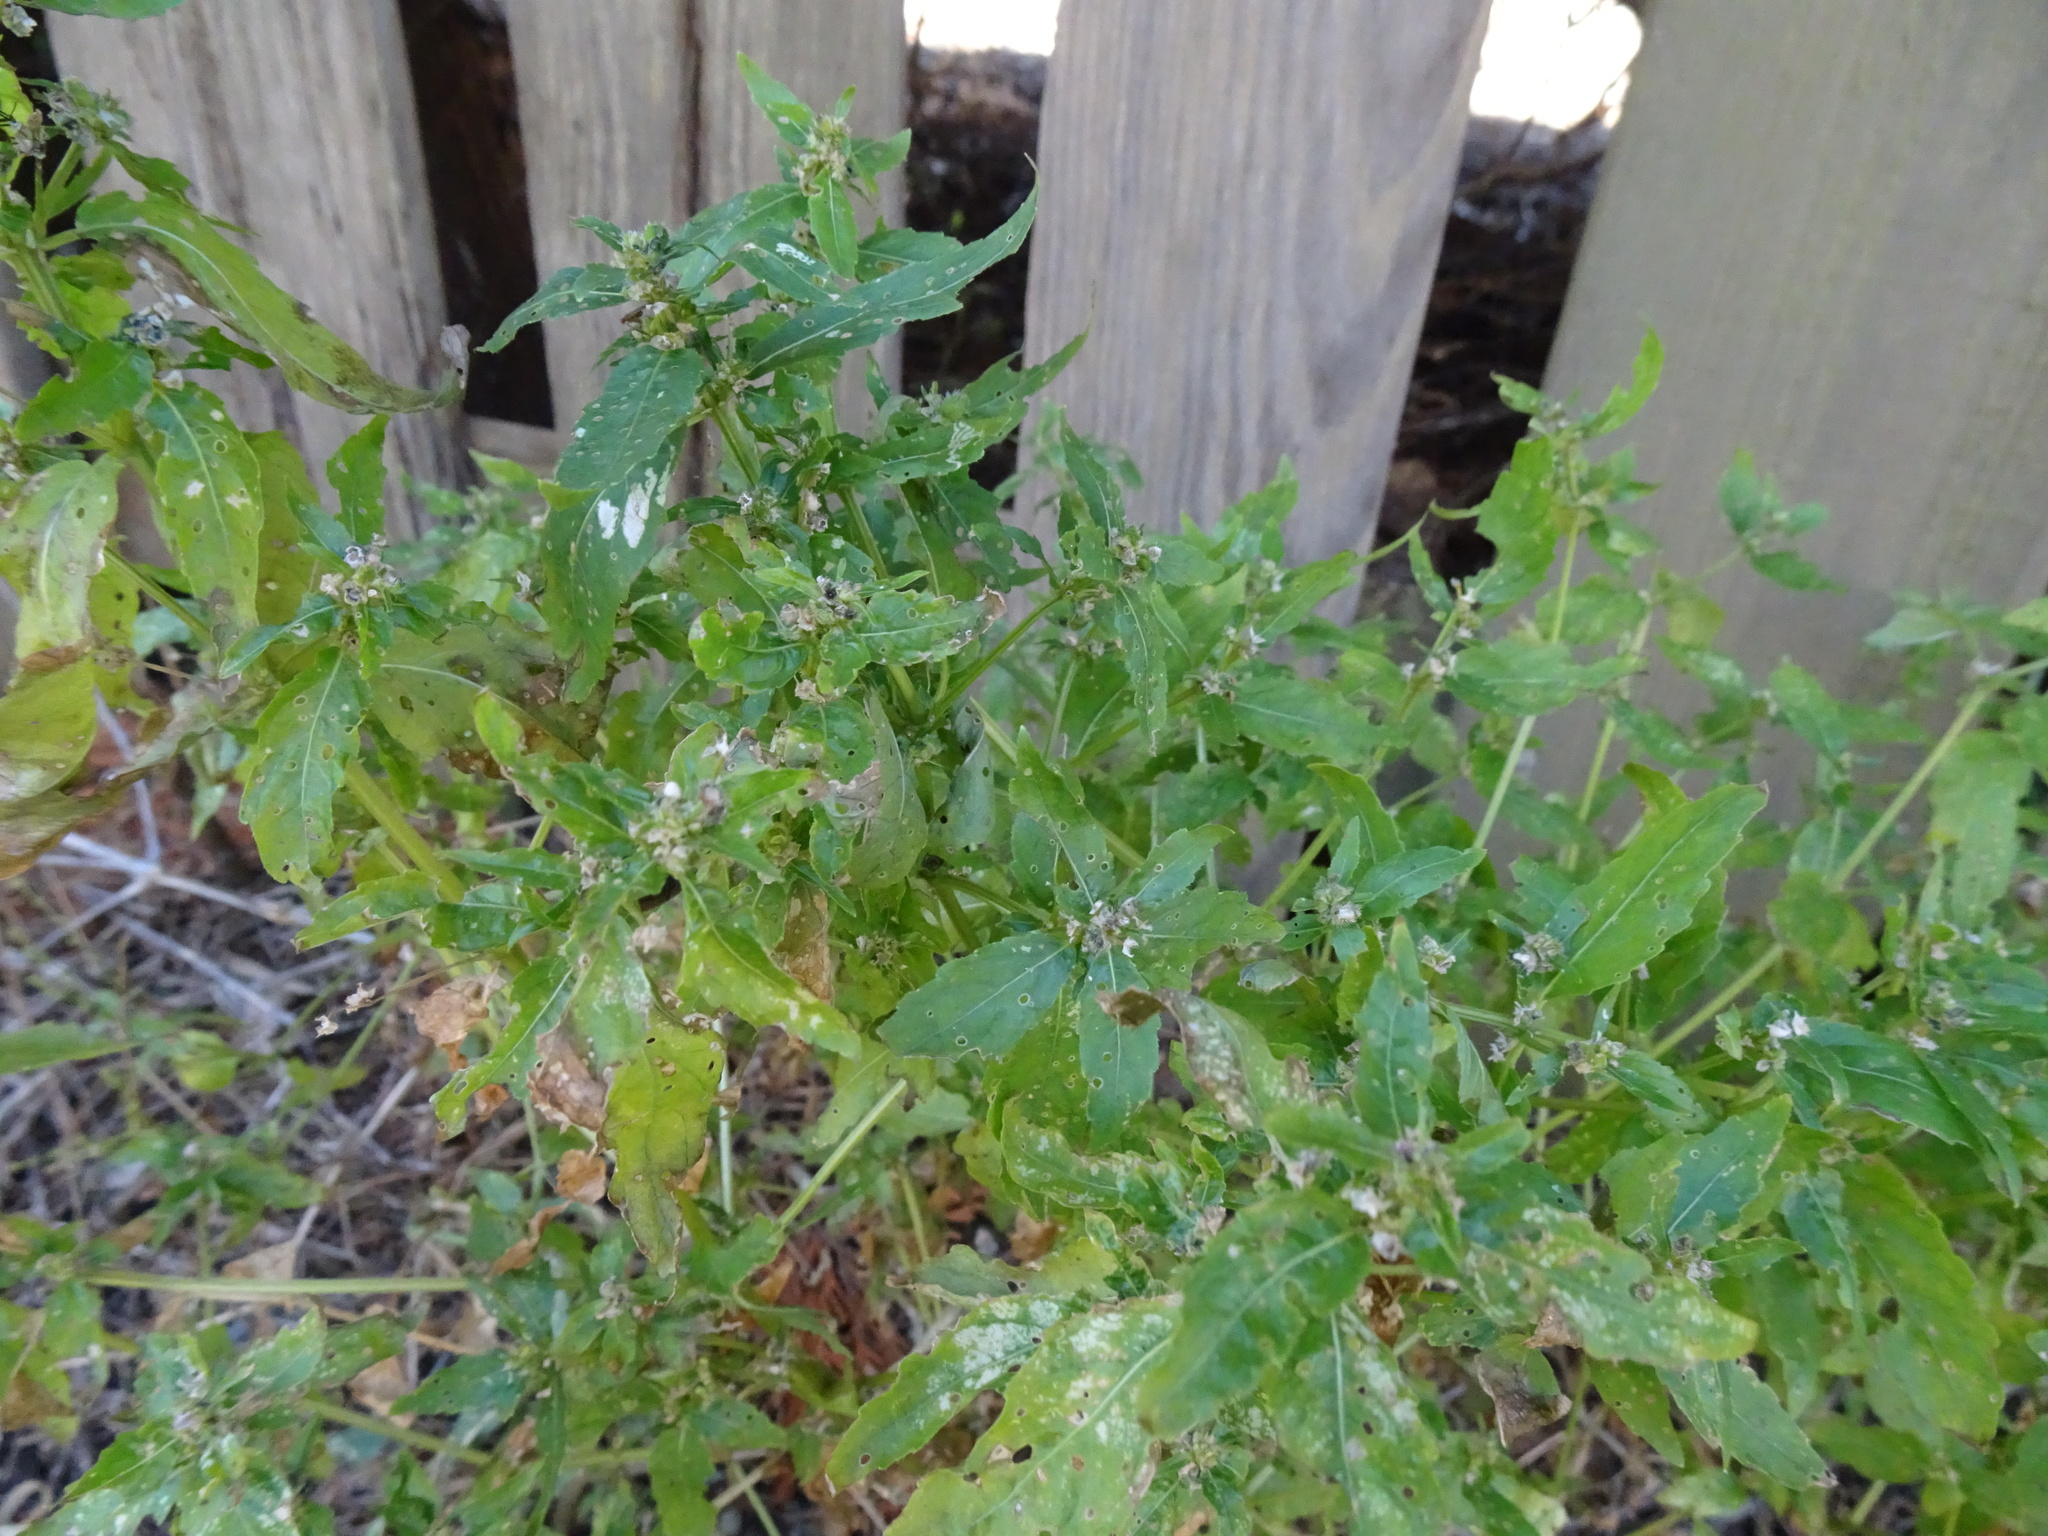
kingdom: Plantae
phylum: Tracheophyta
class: Magnoliopsida
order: Malpighiales
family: Euphorbiaceae
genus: Mercurialis
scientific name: Mercurialis annua
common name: Annual mercury
